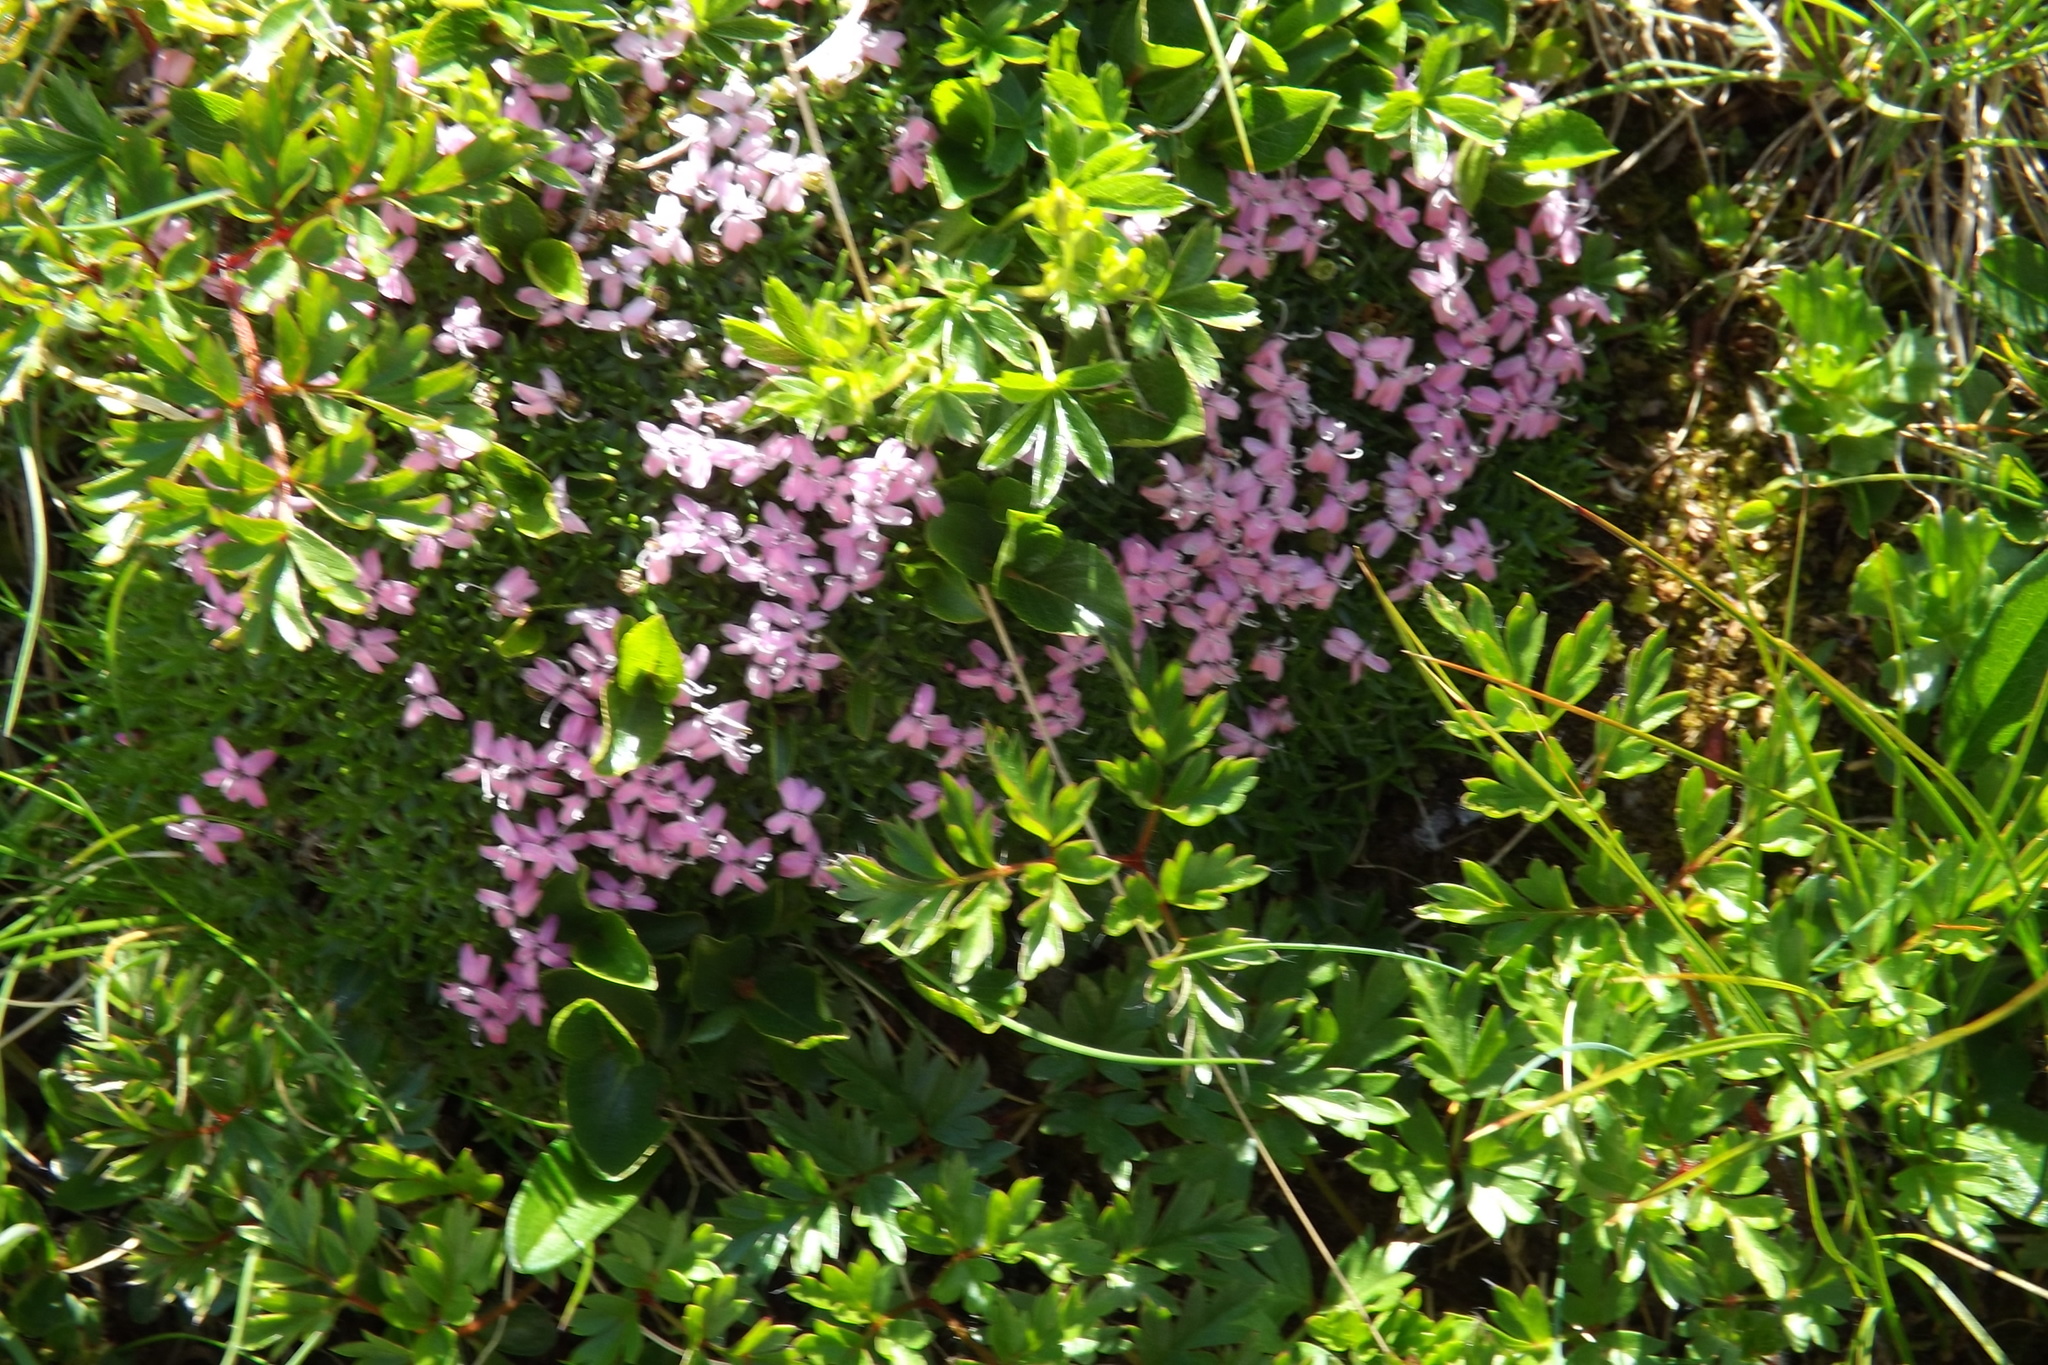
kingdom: Plantae
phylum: Tracheophyta
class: Magnoliopsida
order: Caryophyllales
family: Caryophyllaceae
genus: Silene
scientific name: Silene acaulis
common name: Moss campion
